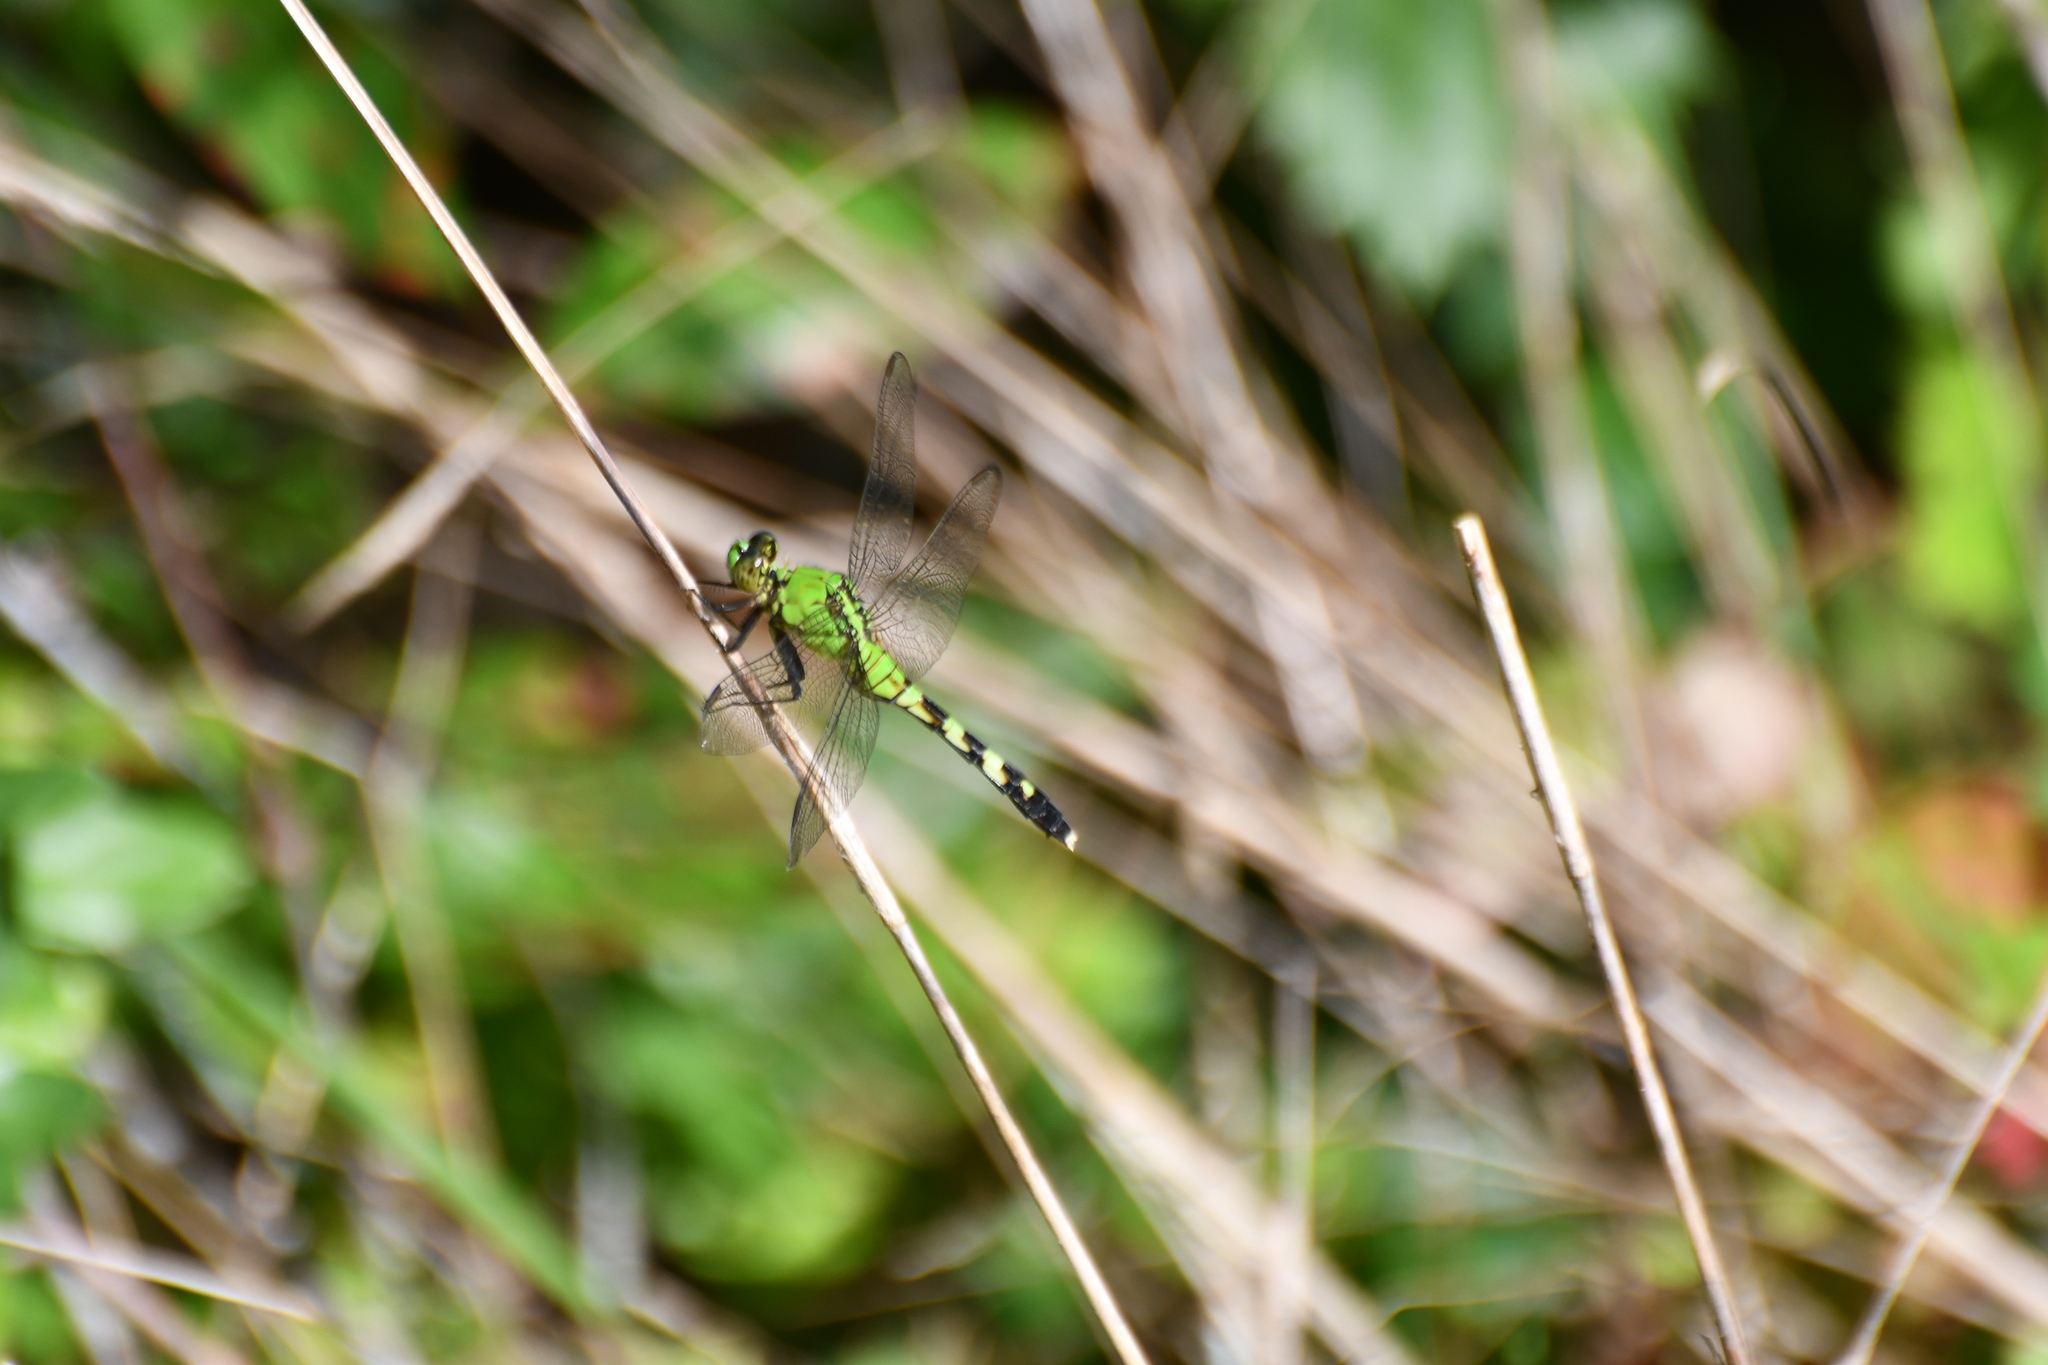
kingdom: Animalia
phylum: Arthropoda
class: Insecta
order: Odonata
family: Libellulidae
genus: Erythemis
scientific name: Erythemis simplicicollis
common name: Eastern pondhawk
